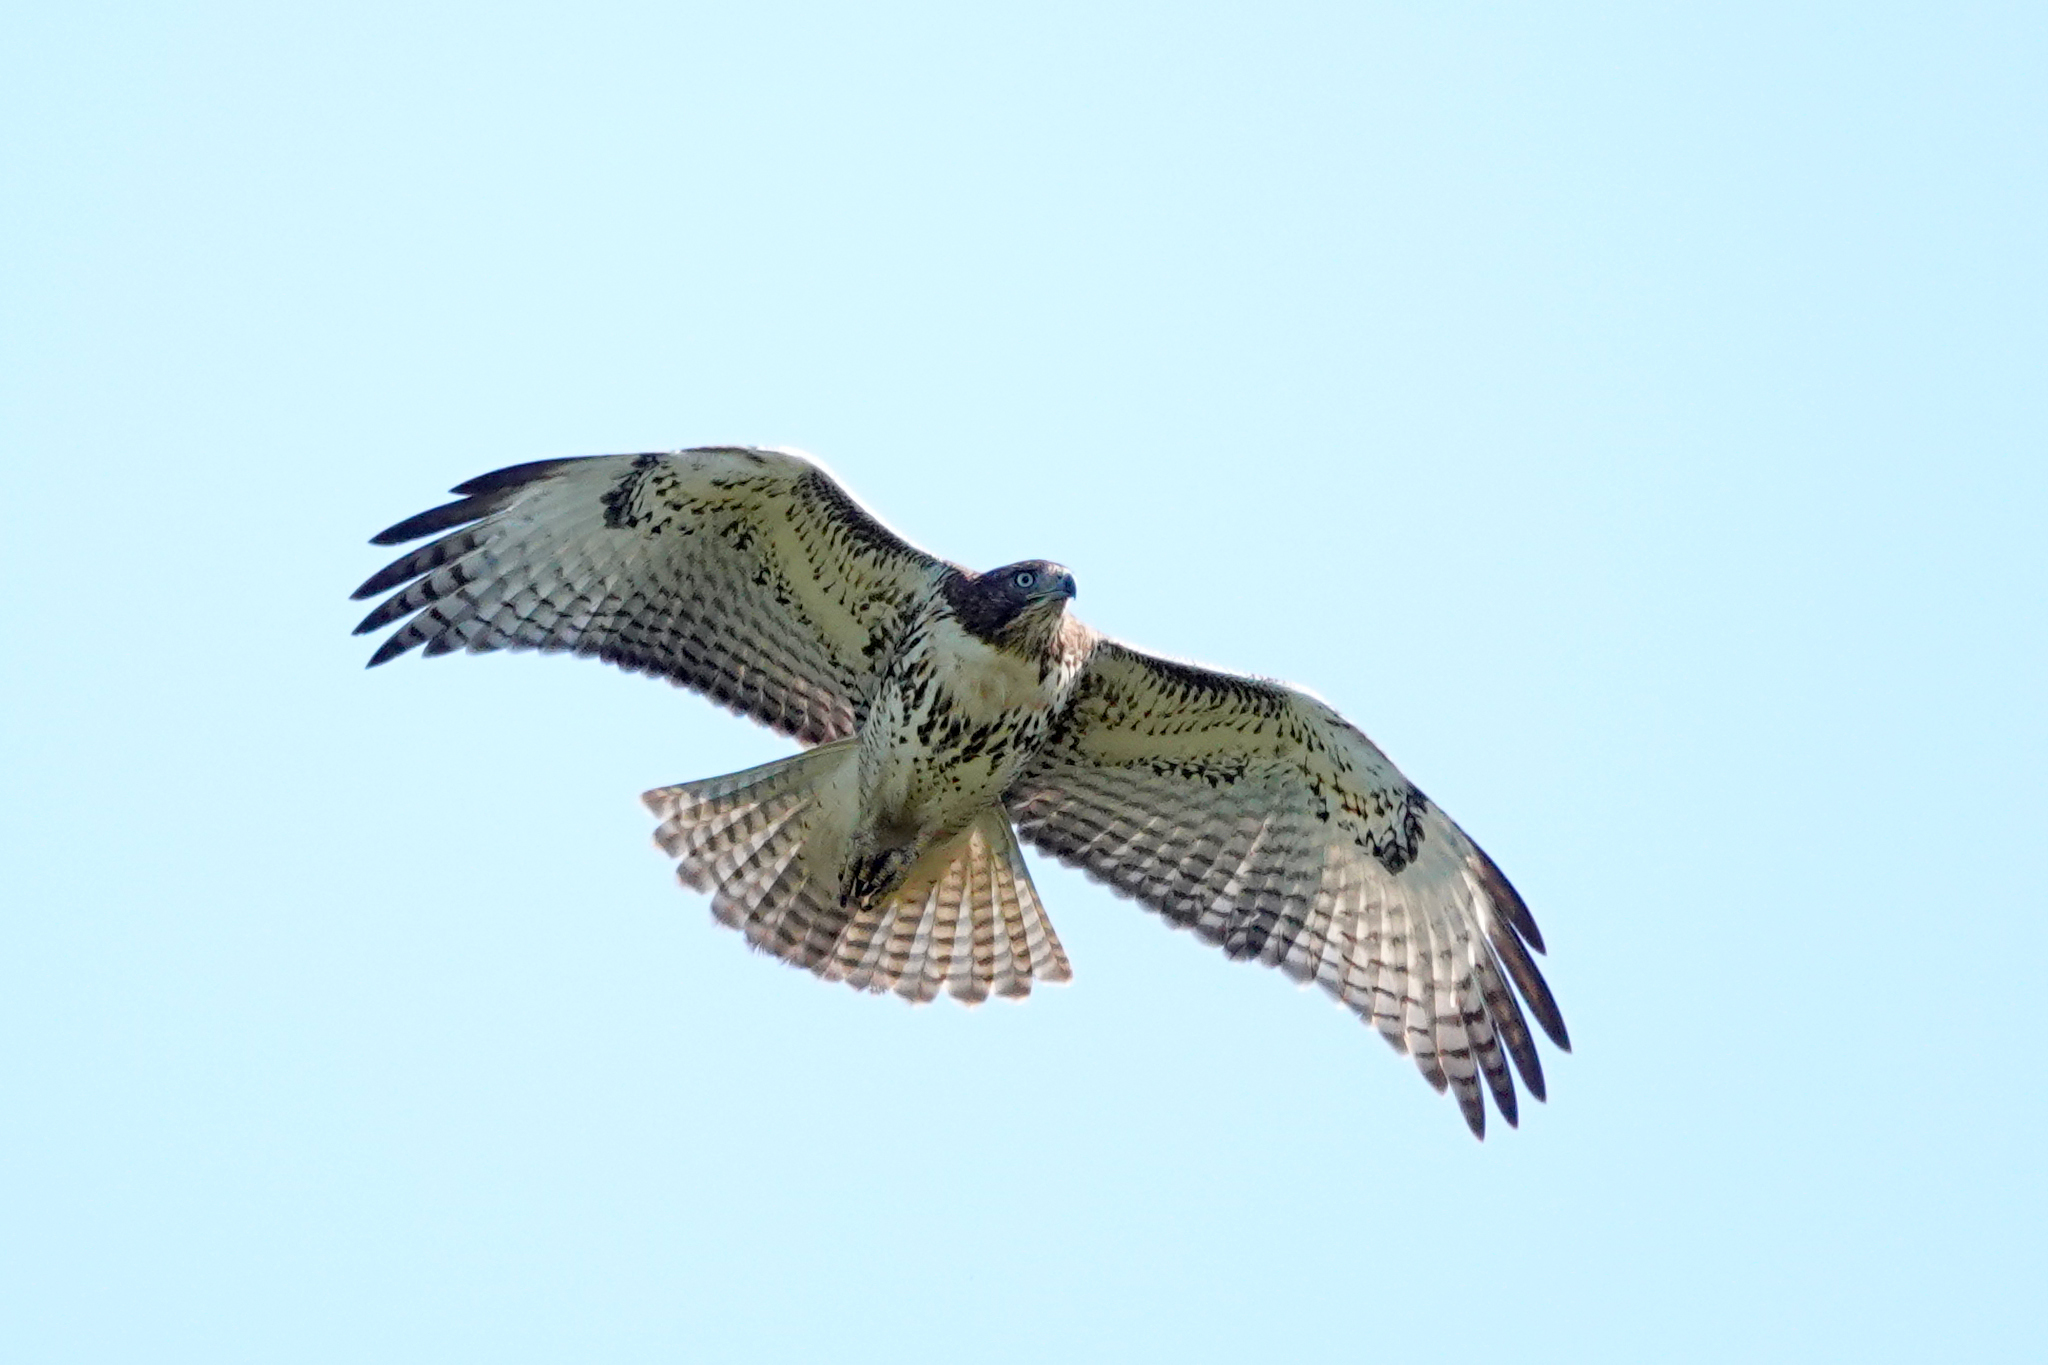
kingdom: Animalia
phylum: Chordata
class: Aves
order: Accipitriformes
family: Accipitridae
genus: Buteo
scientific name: Buteo jamaicensis
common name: Red-tailed hawk
